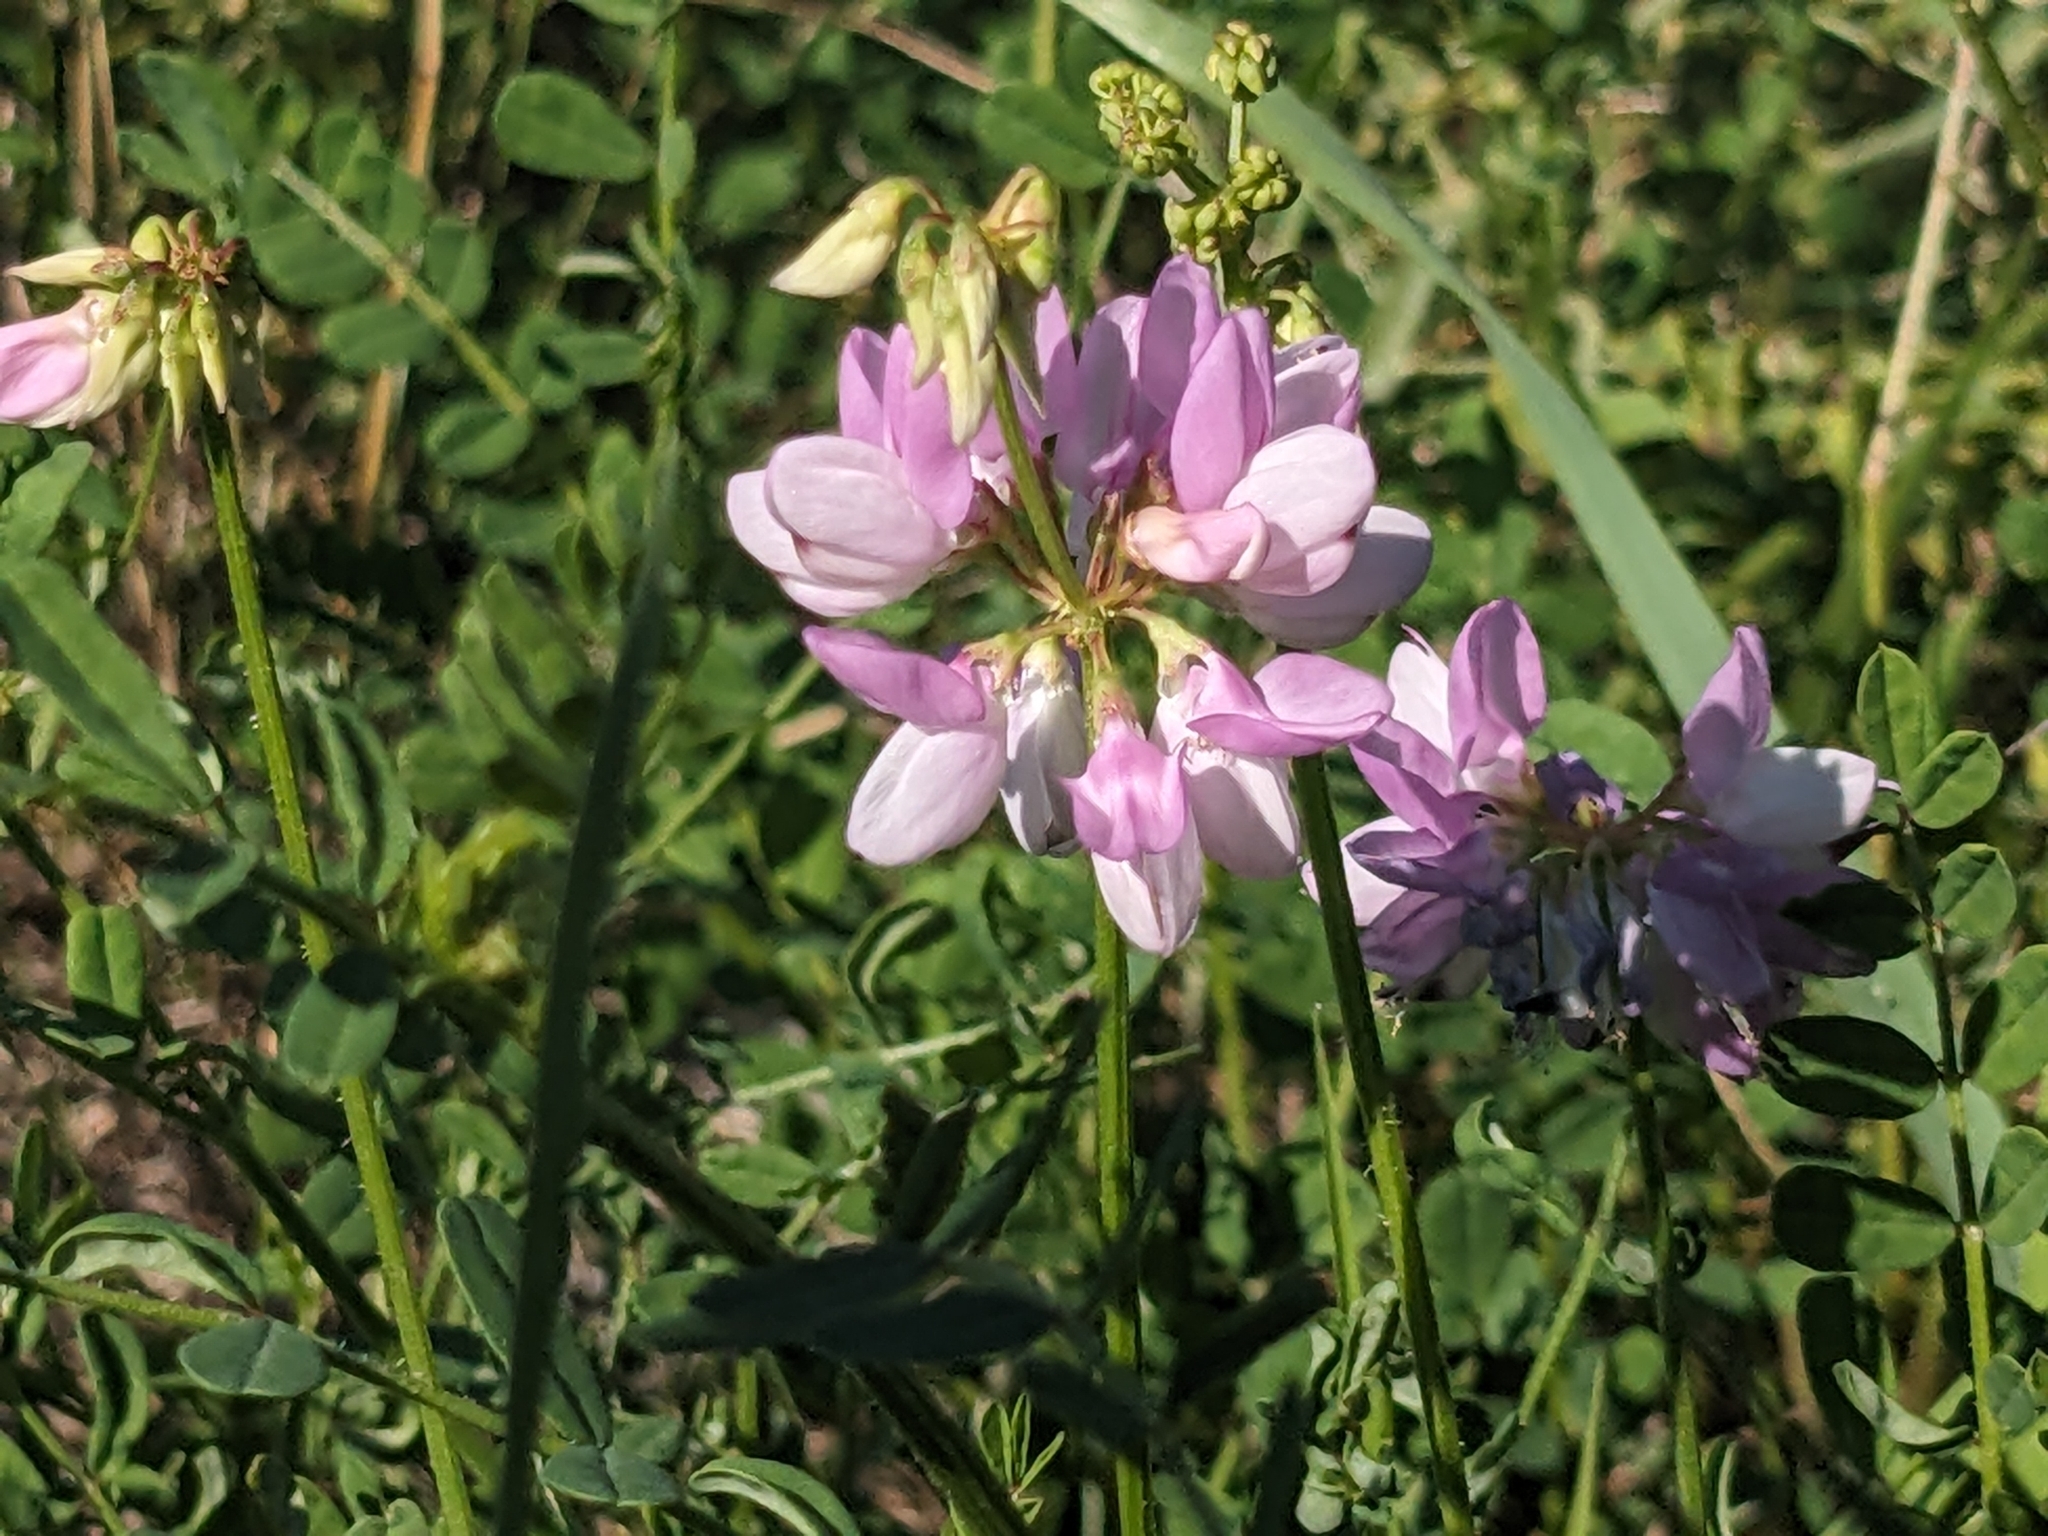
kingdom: Plantae
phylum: Tracheophyta
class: Magnoliopsida
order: Fabales
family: Fabaceae
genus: Coronilla
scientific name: Coronilla varia
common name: Crownvetch
